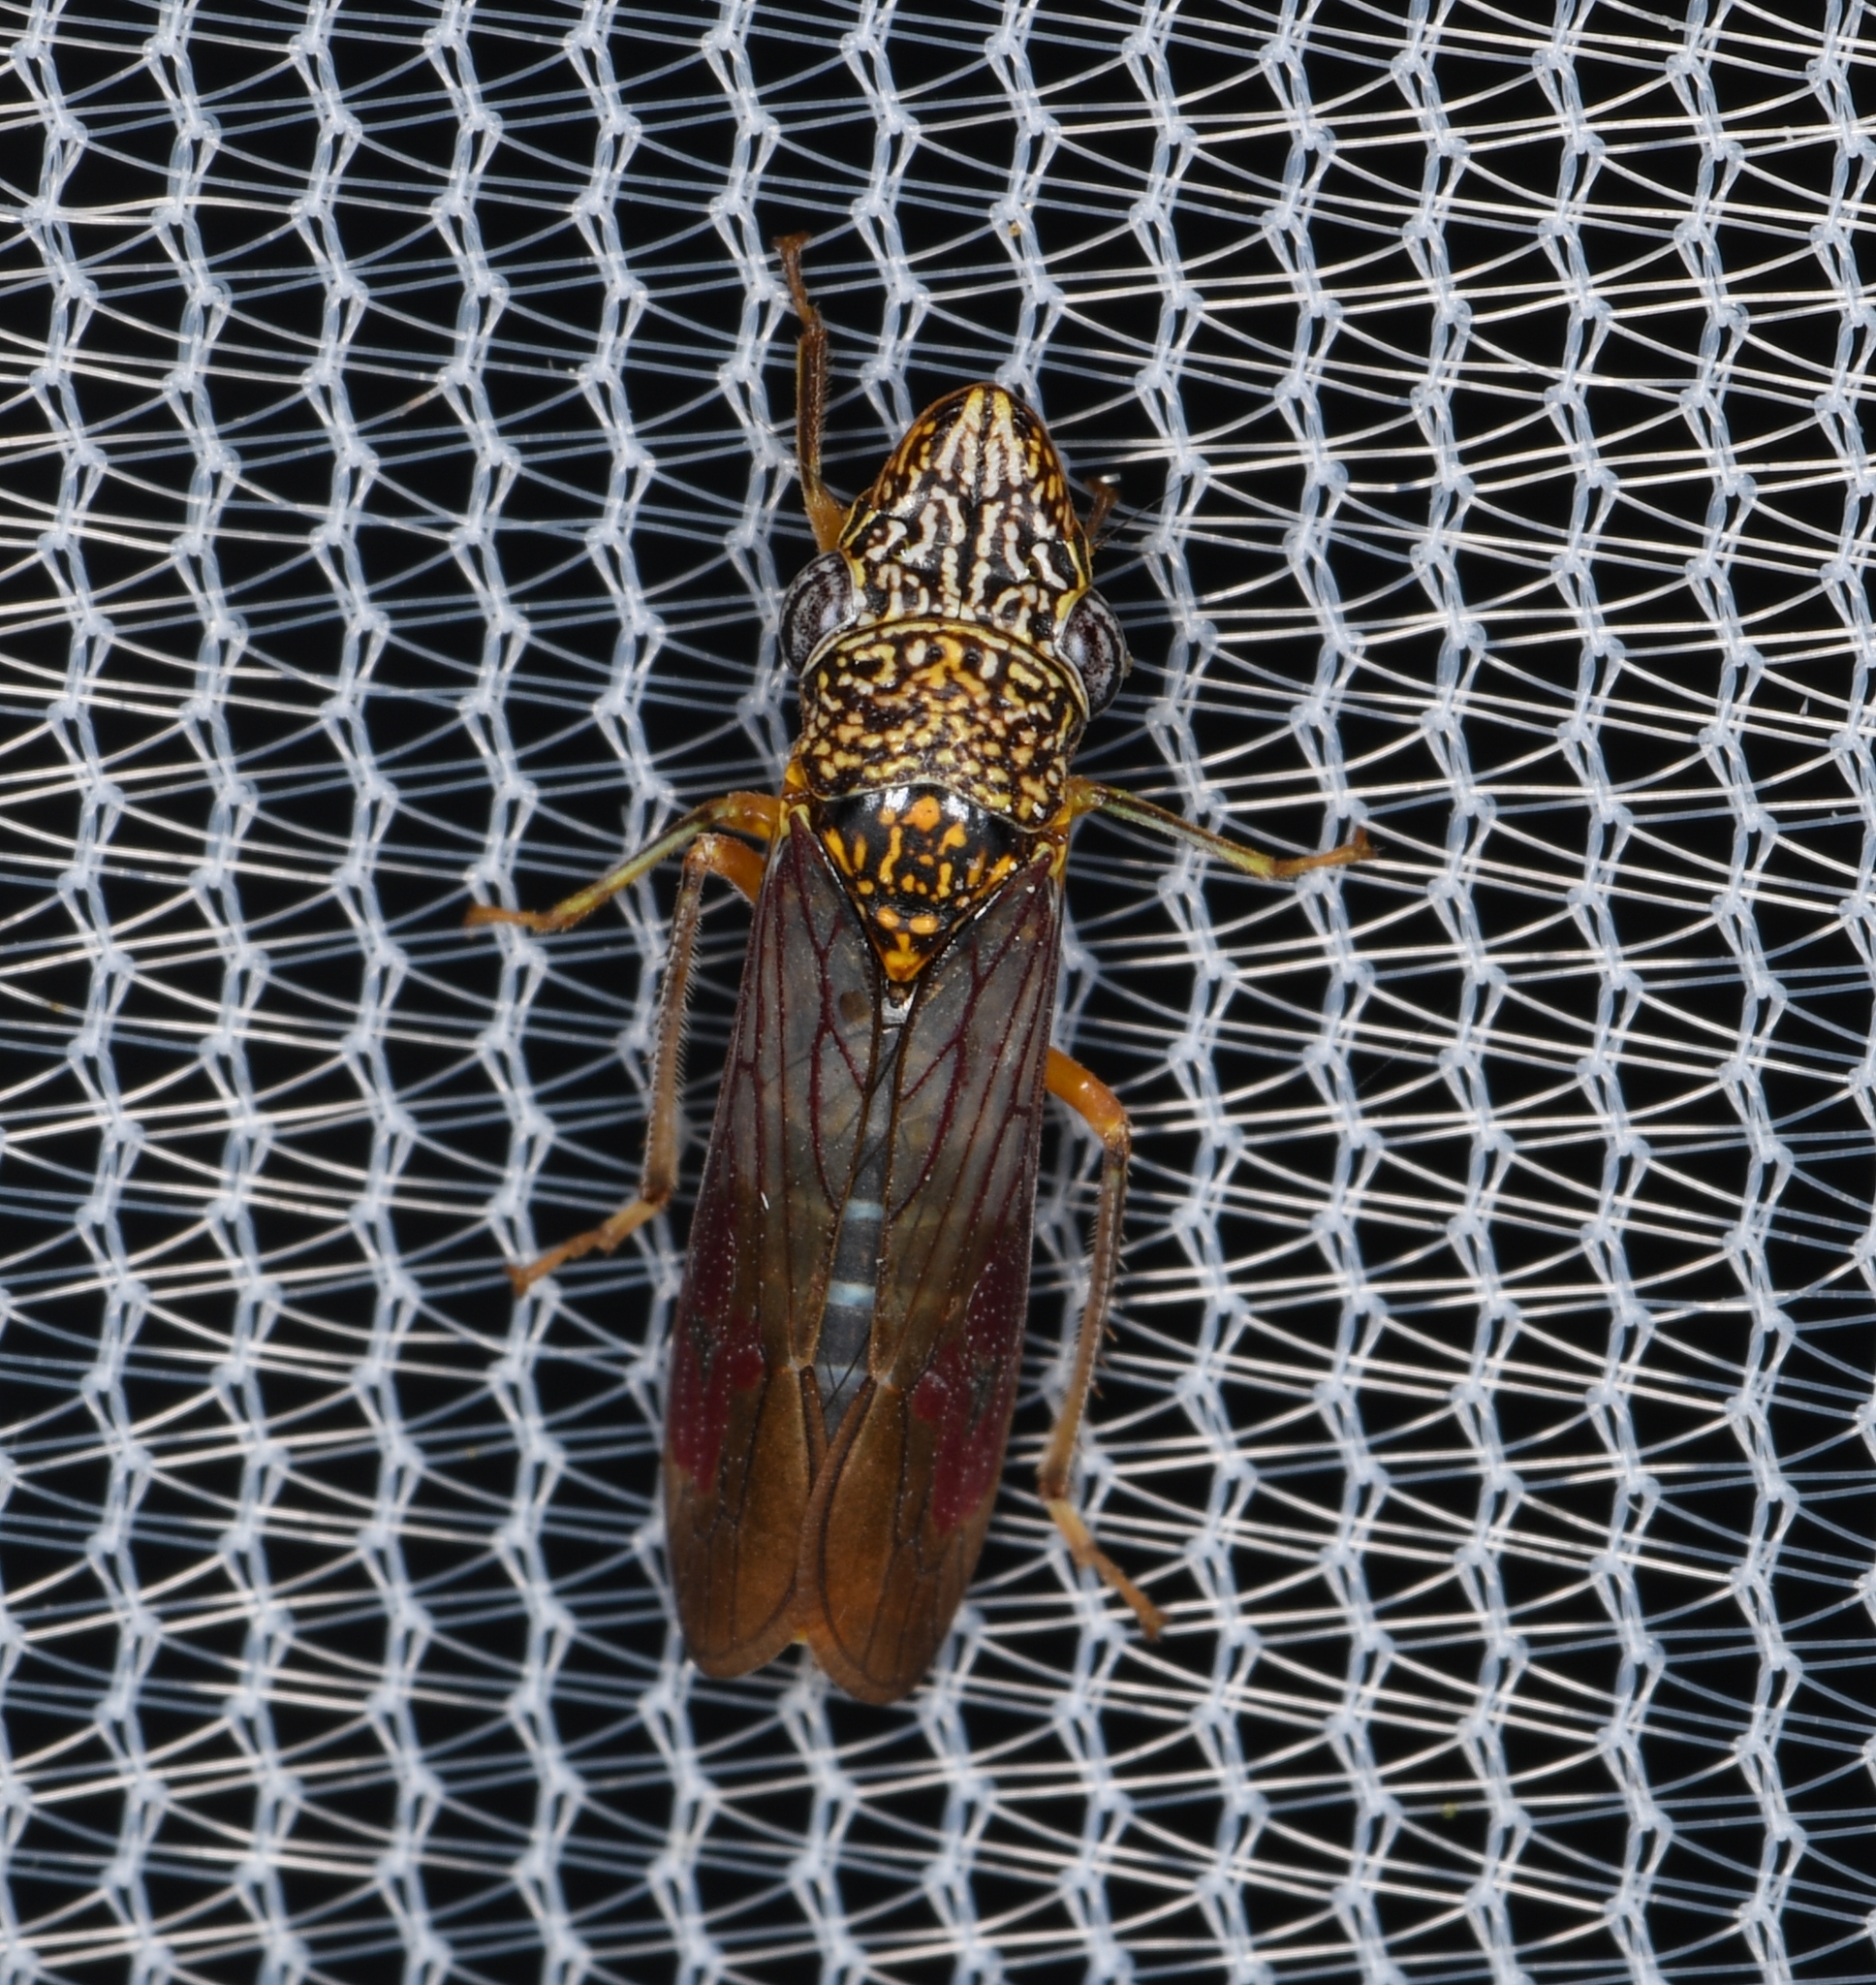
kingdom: Animalia
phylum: Arthropoda
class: Insecta
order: Hemiptera
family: Cicadellidae
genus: Homalodisca
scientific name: Homalodisca liturata
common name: Lacertate sharpshooter
